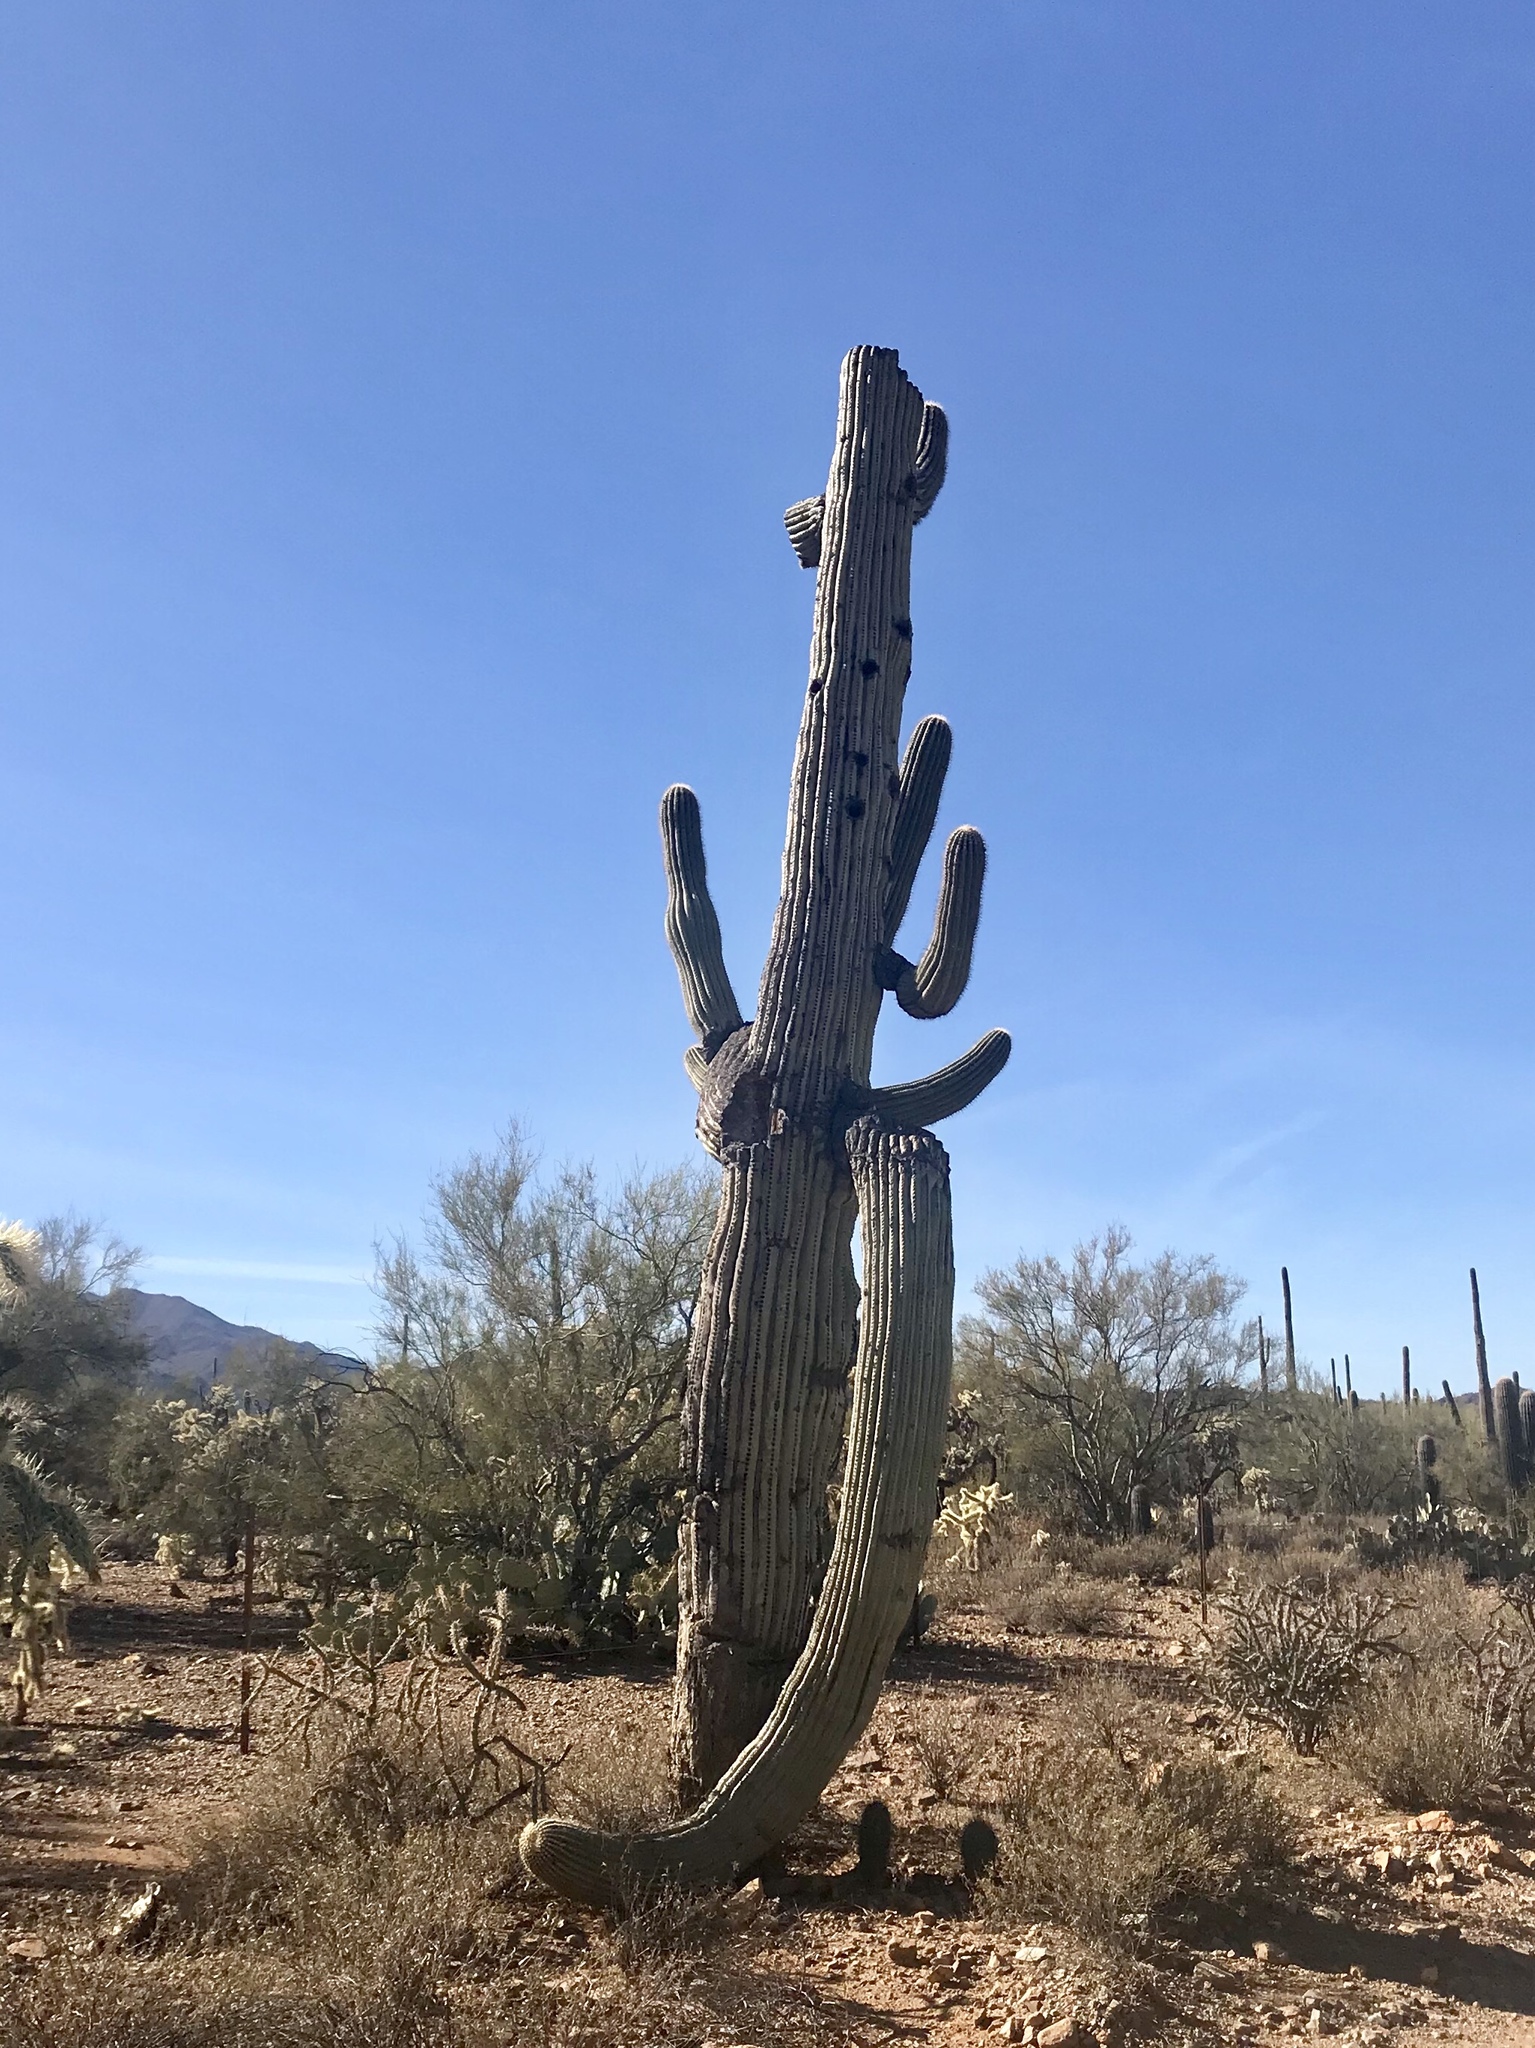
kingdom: Plantae
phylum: Tracheophyta
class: Magnoliopsida
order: Caryophyllales
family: Cactaceae
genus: Carnegiea
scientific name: Carnegiea gigantea
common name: Saguaro
